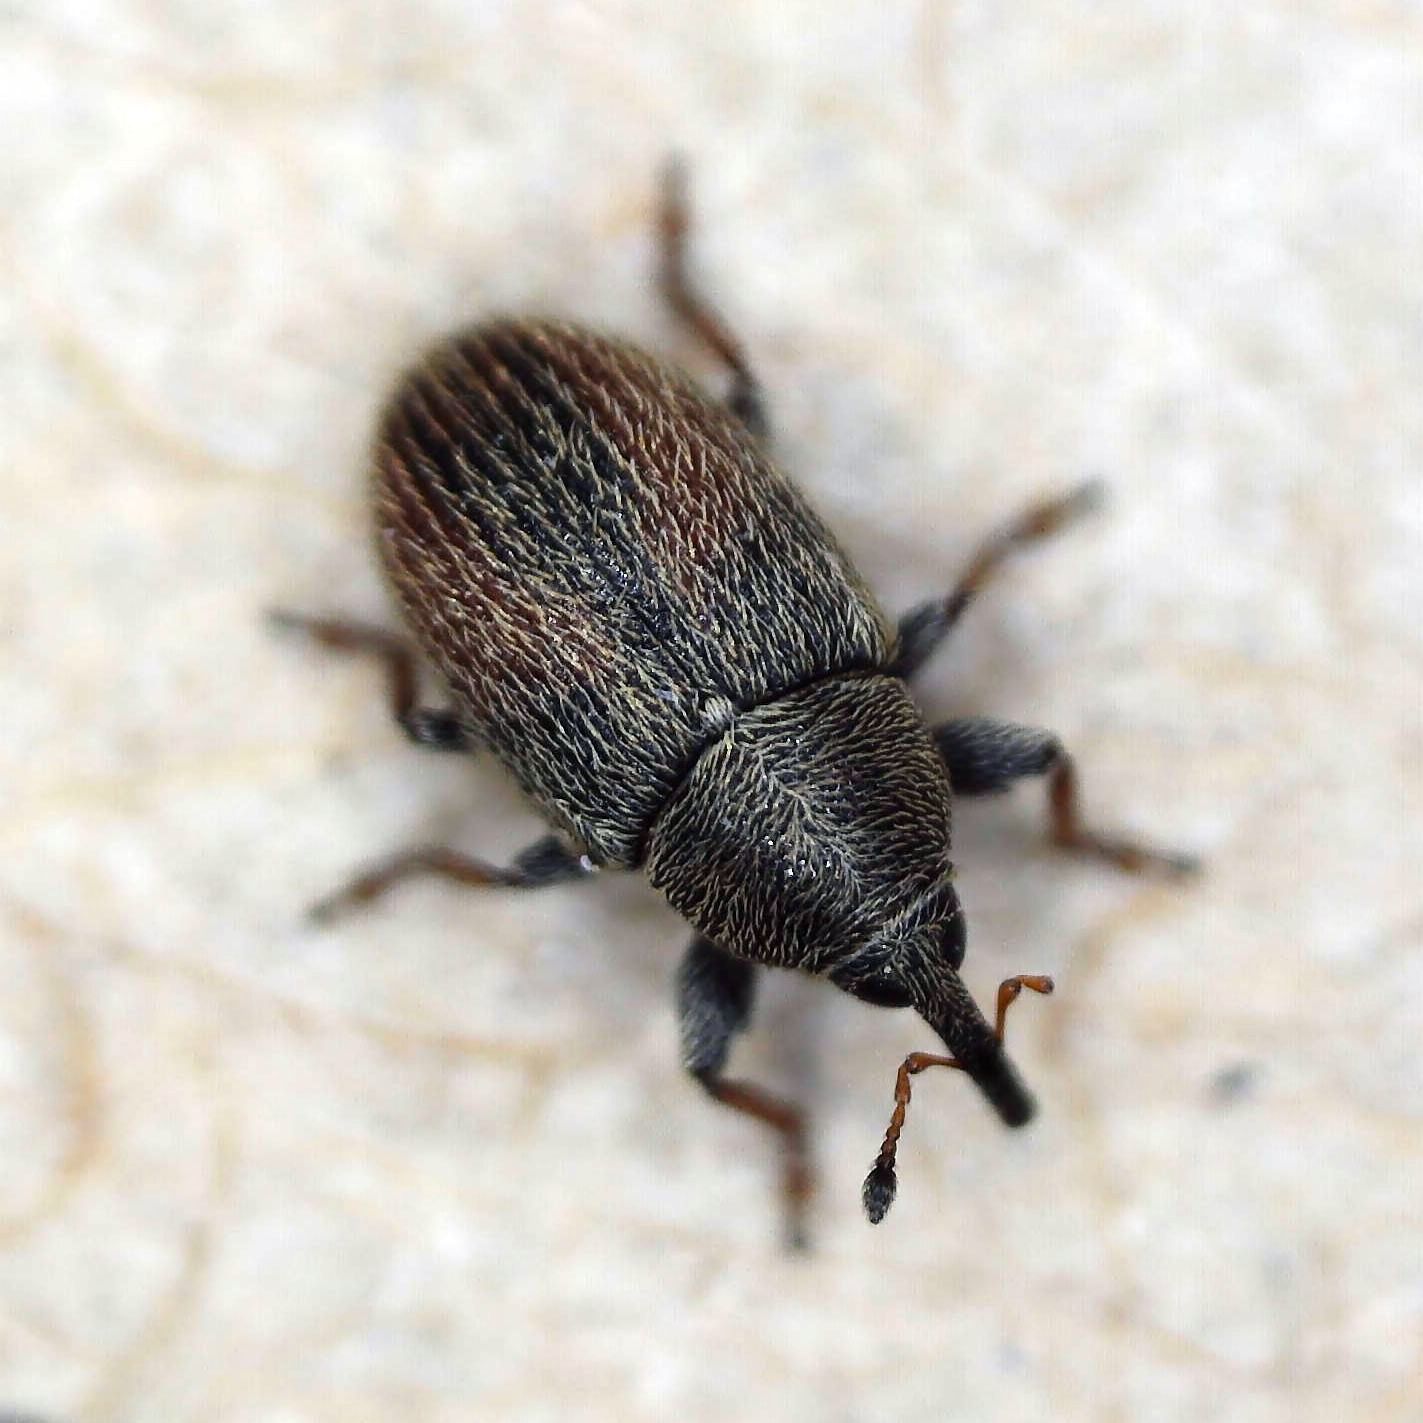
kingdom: Animalia
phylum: Arthropoda
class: Insecta
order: Coleoptera
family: Curculionidae
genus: Mecinus
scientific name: Mecinus pascuorum
